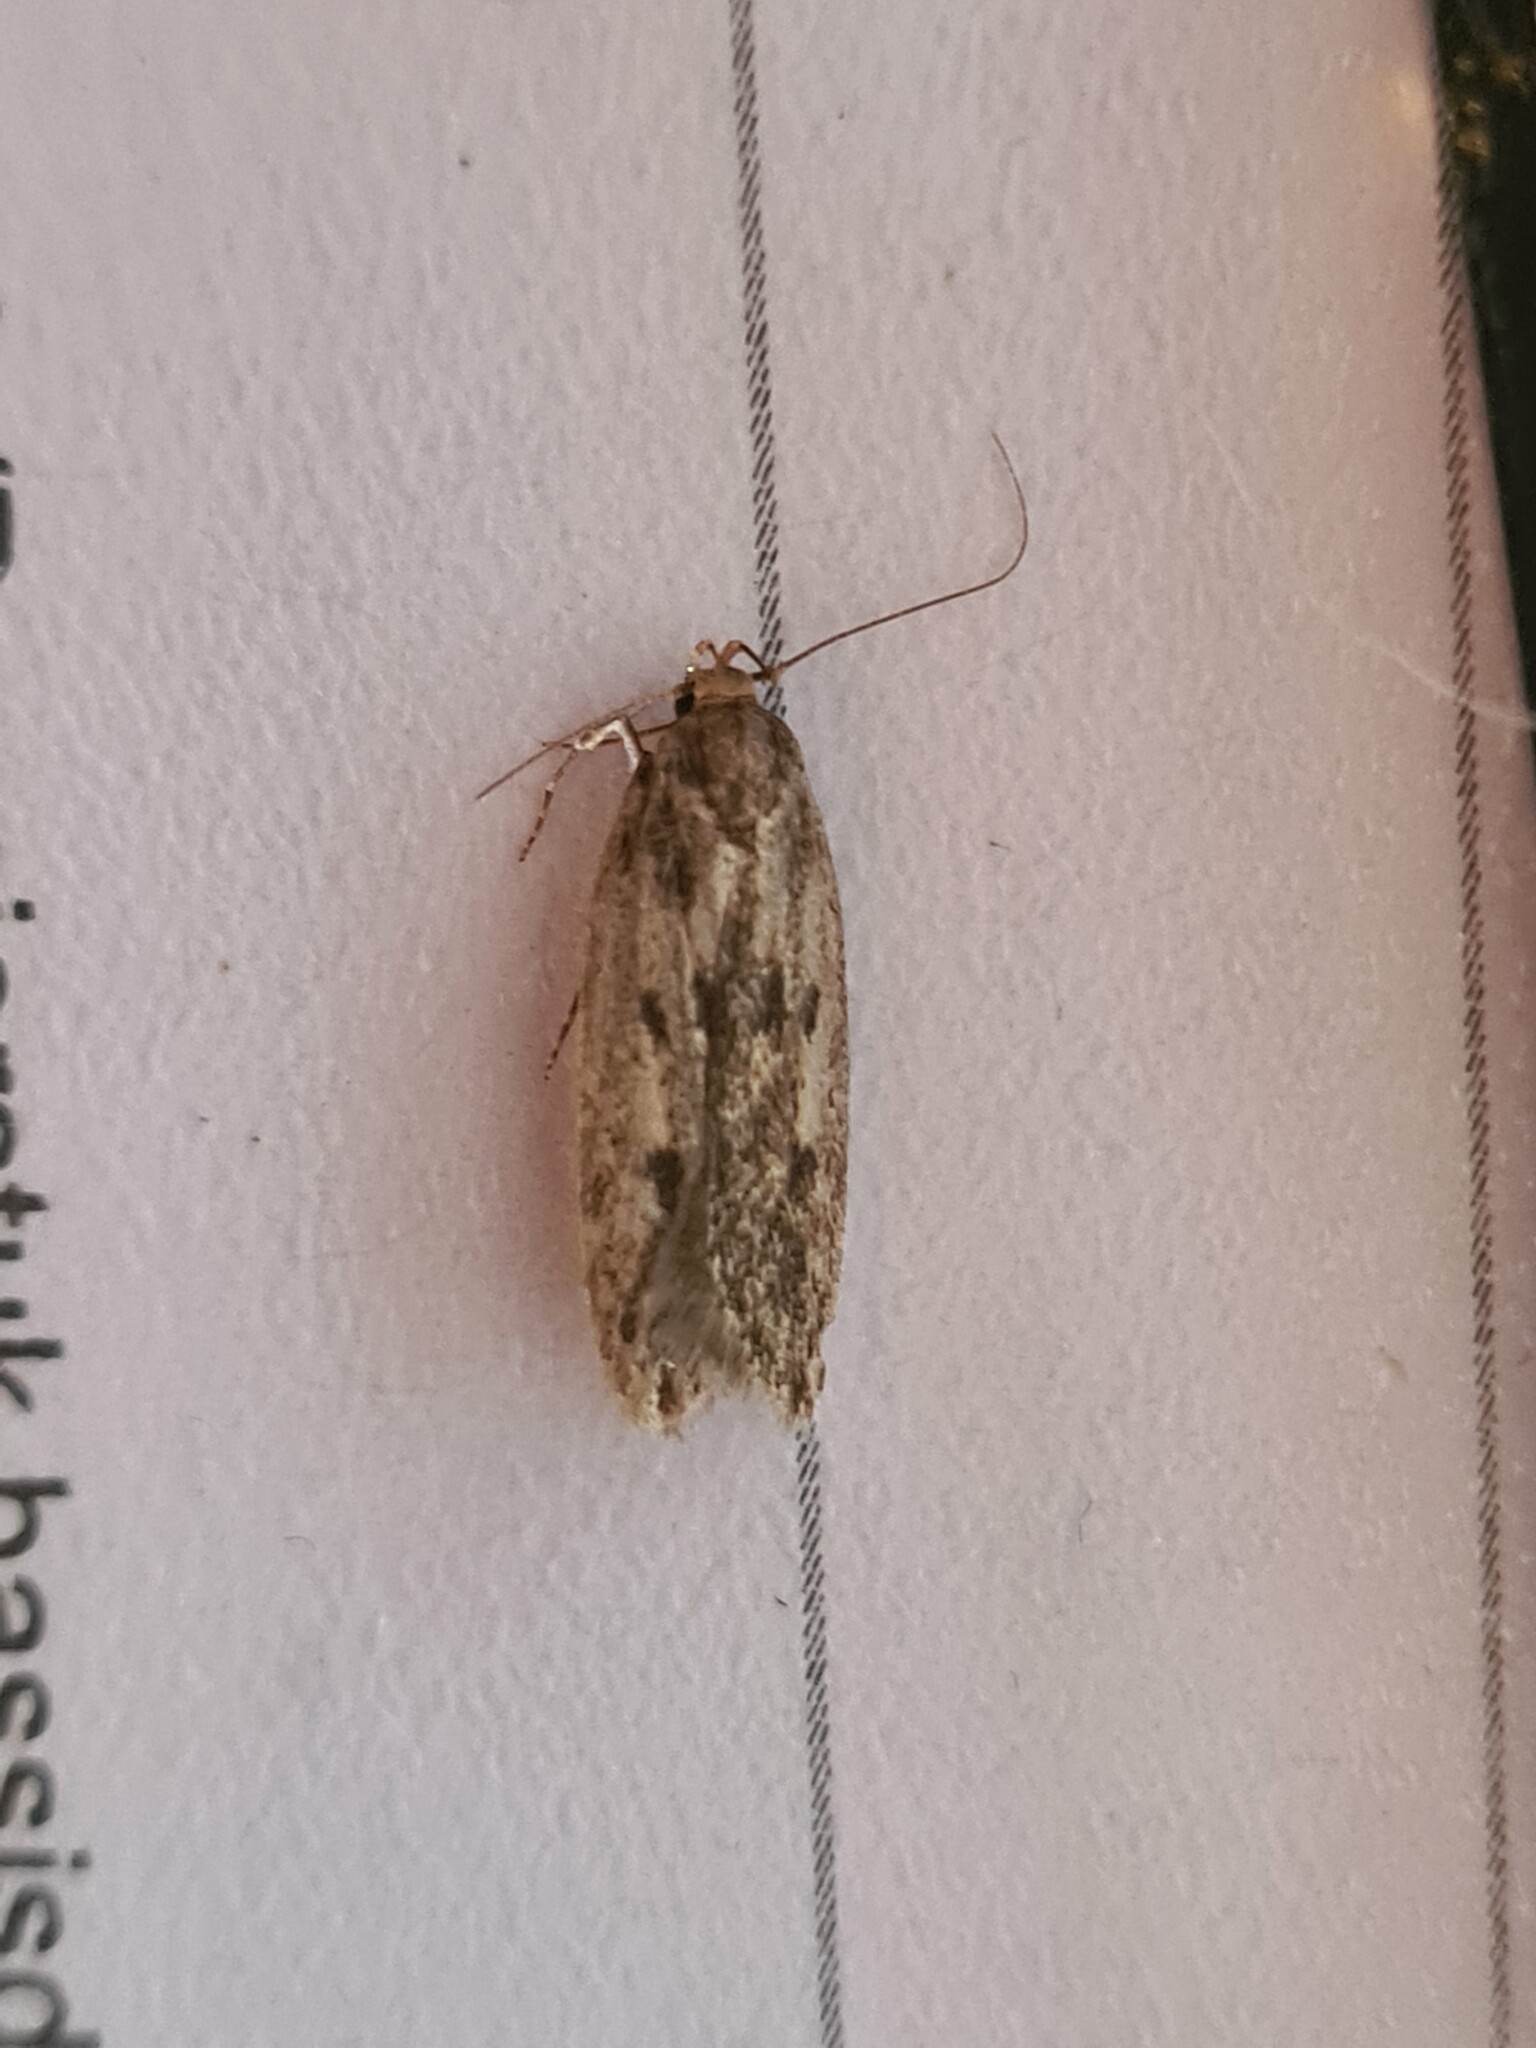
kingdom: Animalia
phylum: Arthropoda
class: Insecta
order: Lepidoptera
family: Oecophoridae
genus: Hofmannophila
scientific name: Hofmannophila pseudospretella
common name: Brown house moth
